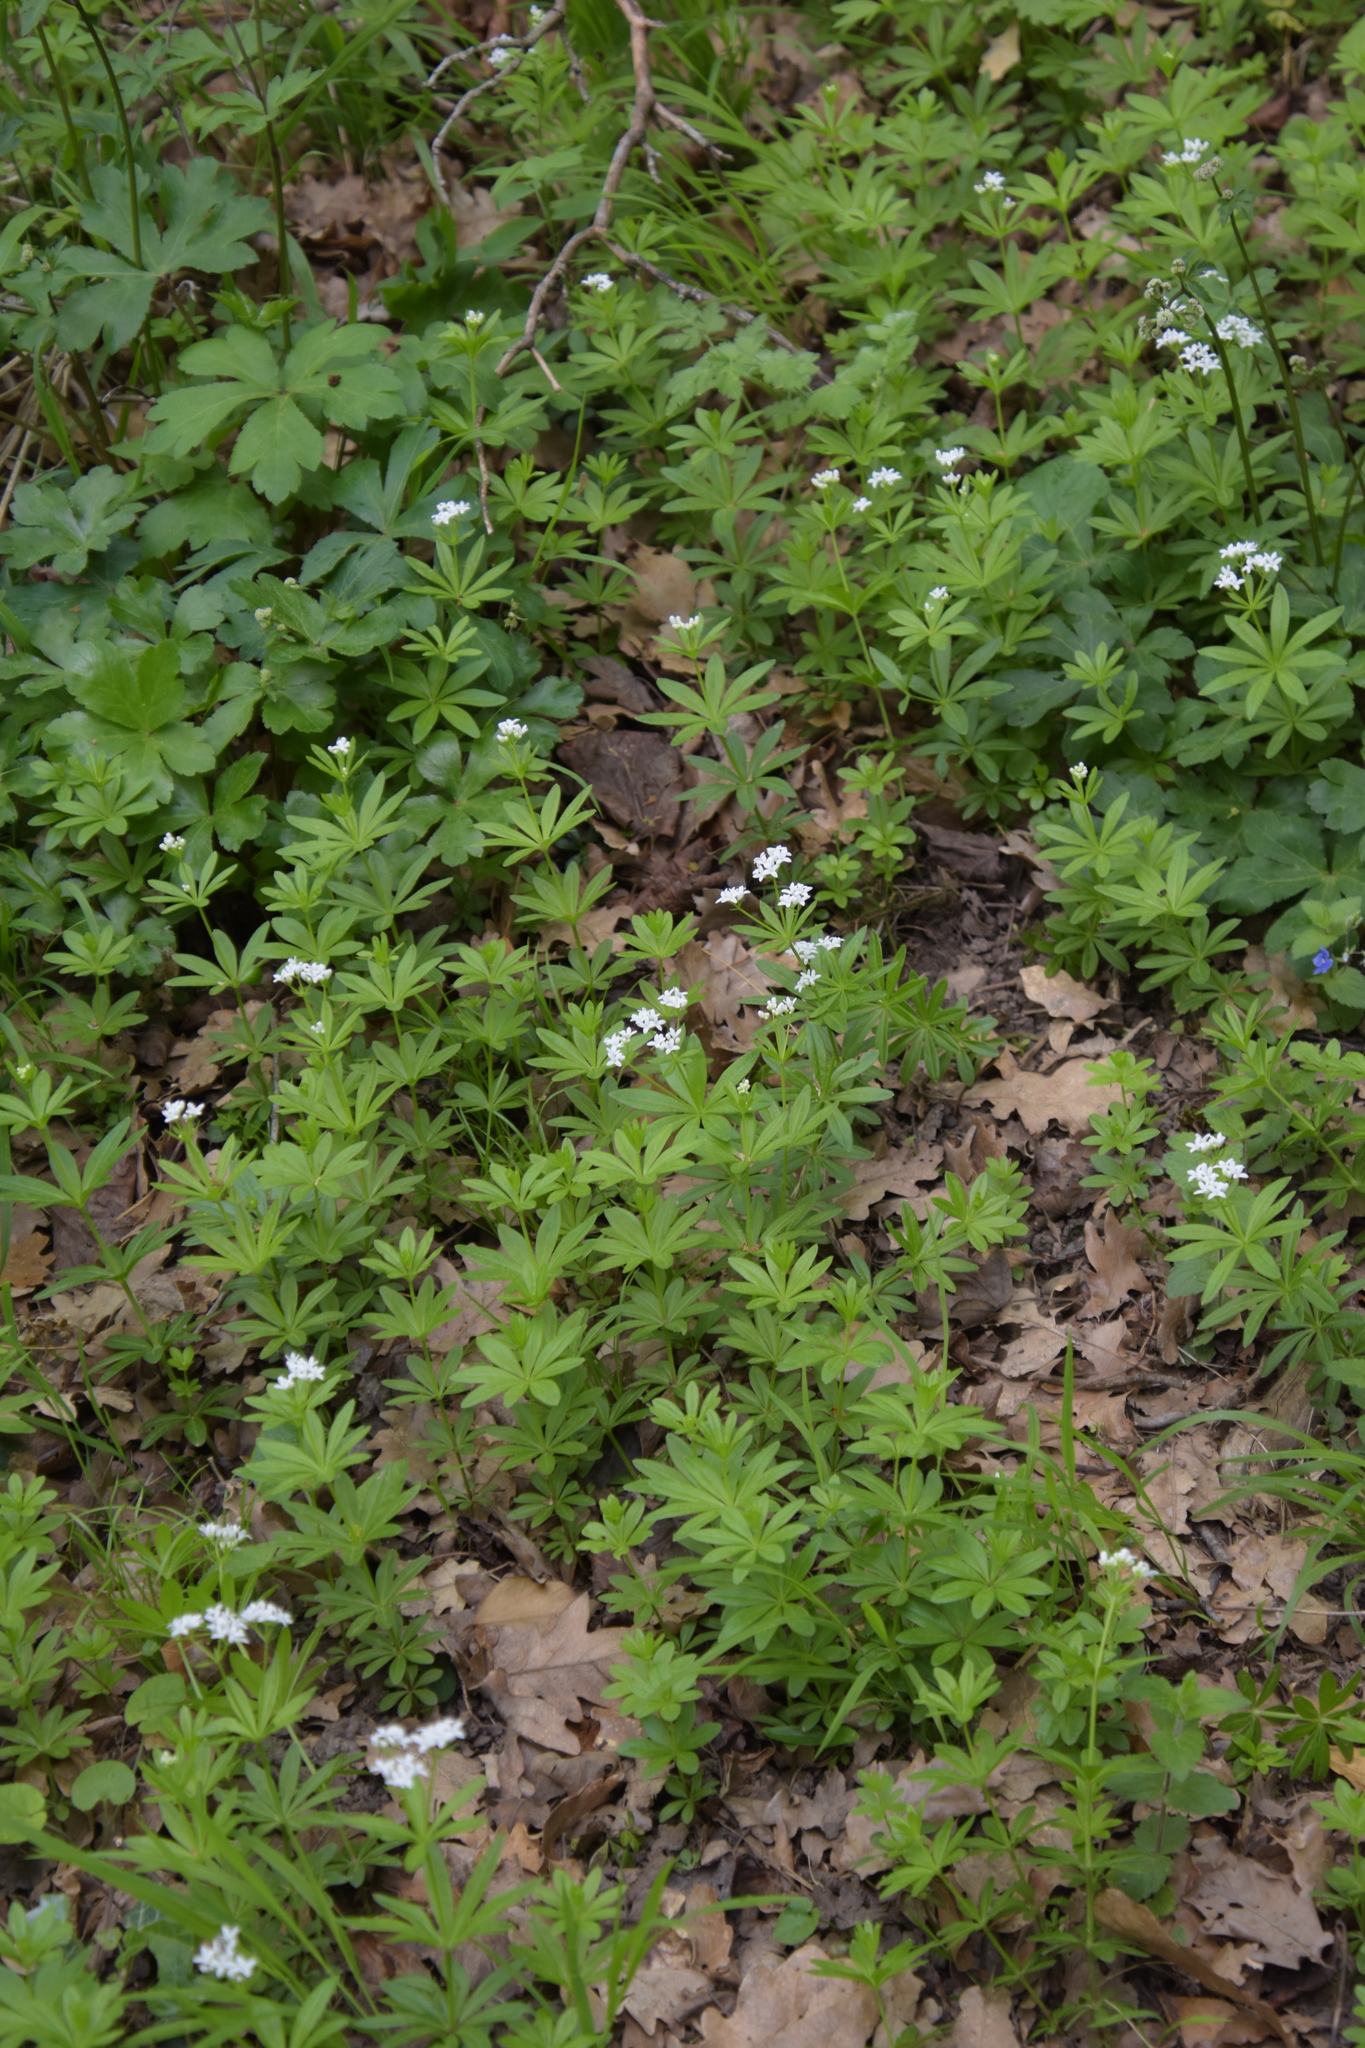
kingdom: Plantae
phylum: Tracheophyta
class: Magnoliopsida
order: Gentianales
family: Rubiaceae
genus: Galium
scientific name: Galium odoratum
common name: Sweet woodruff
